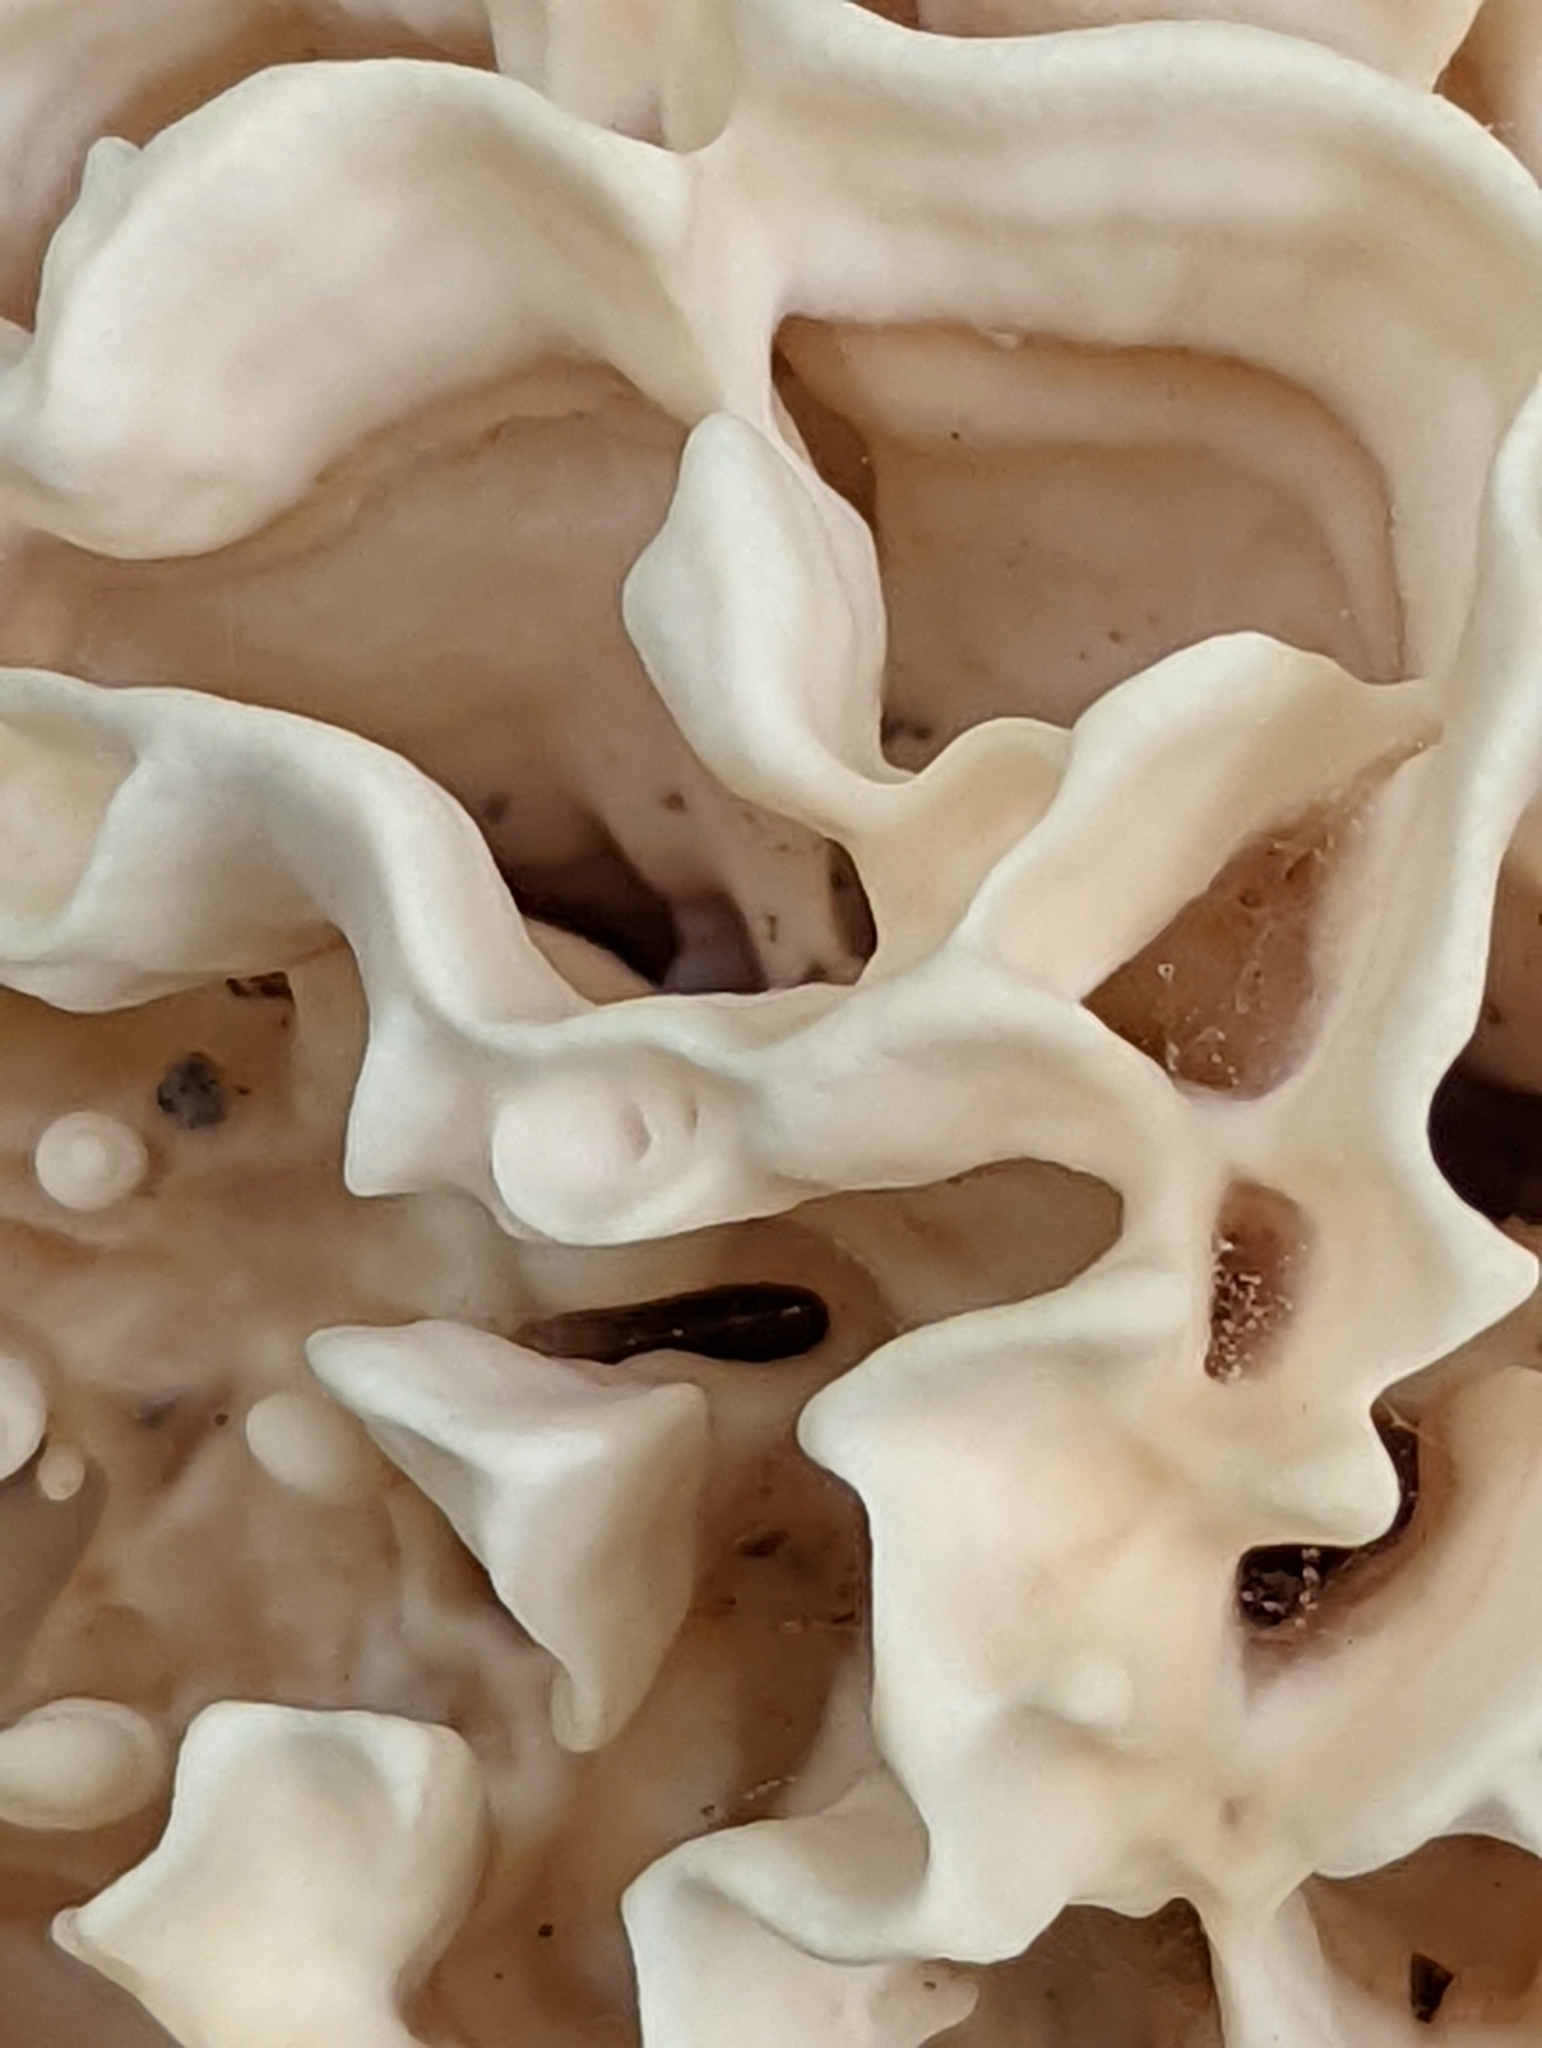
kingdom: Fungi
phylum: Basidiomycota
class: Agaricomycetes
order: Polyporales
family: Sparassidaceae
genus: Sparassis
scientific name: Sparassis spathulata
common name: Eastern cauliflower mushroom
